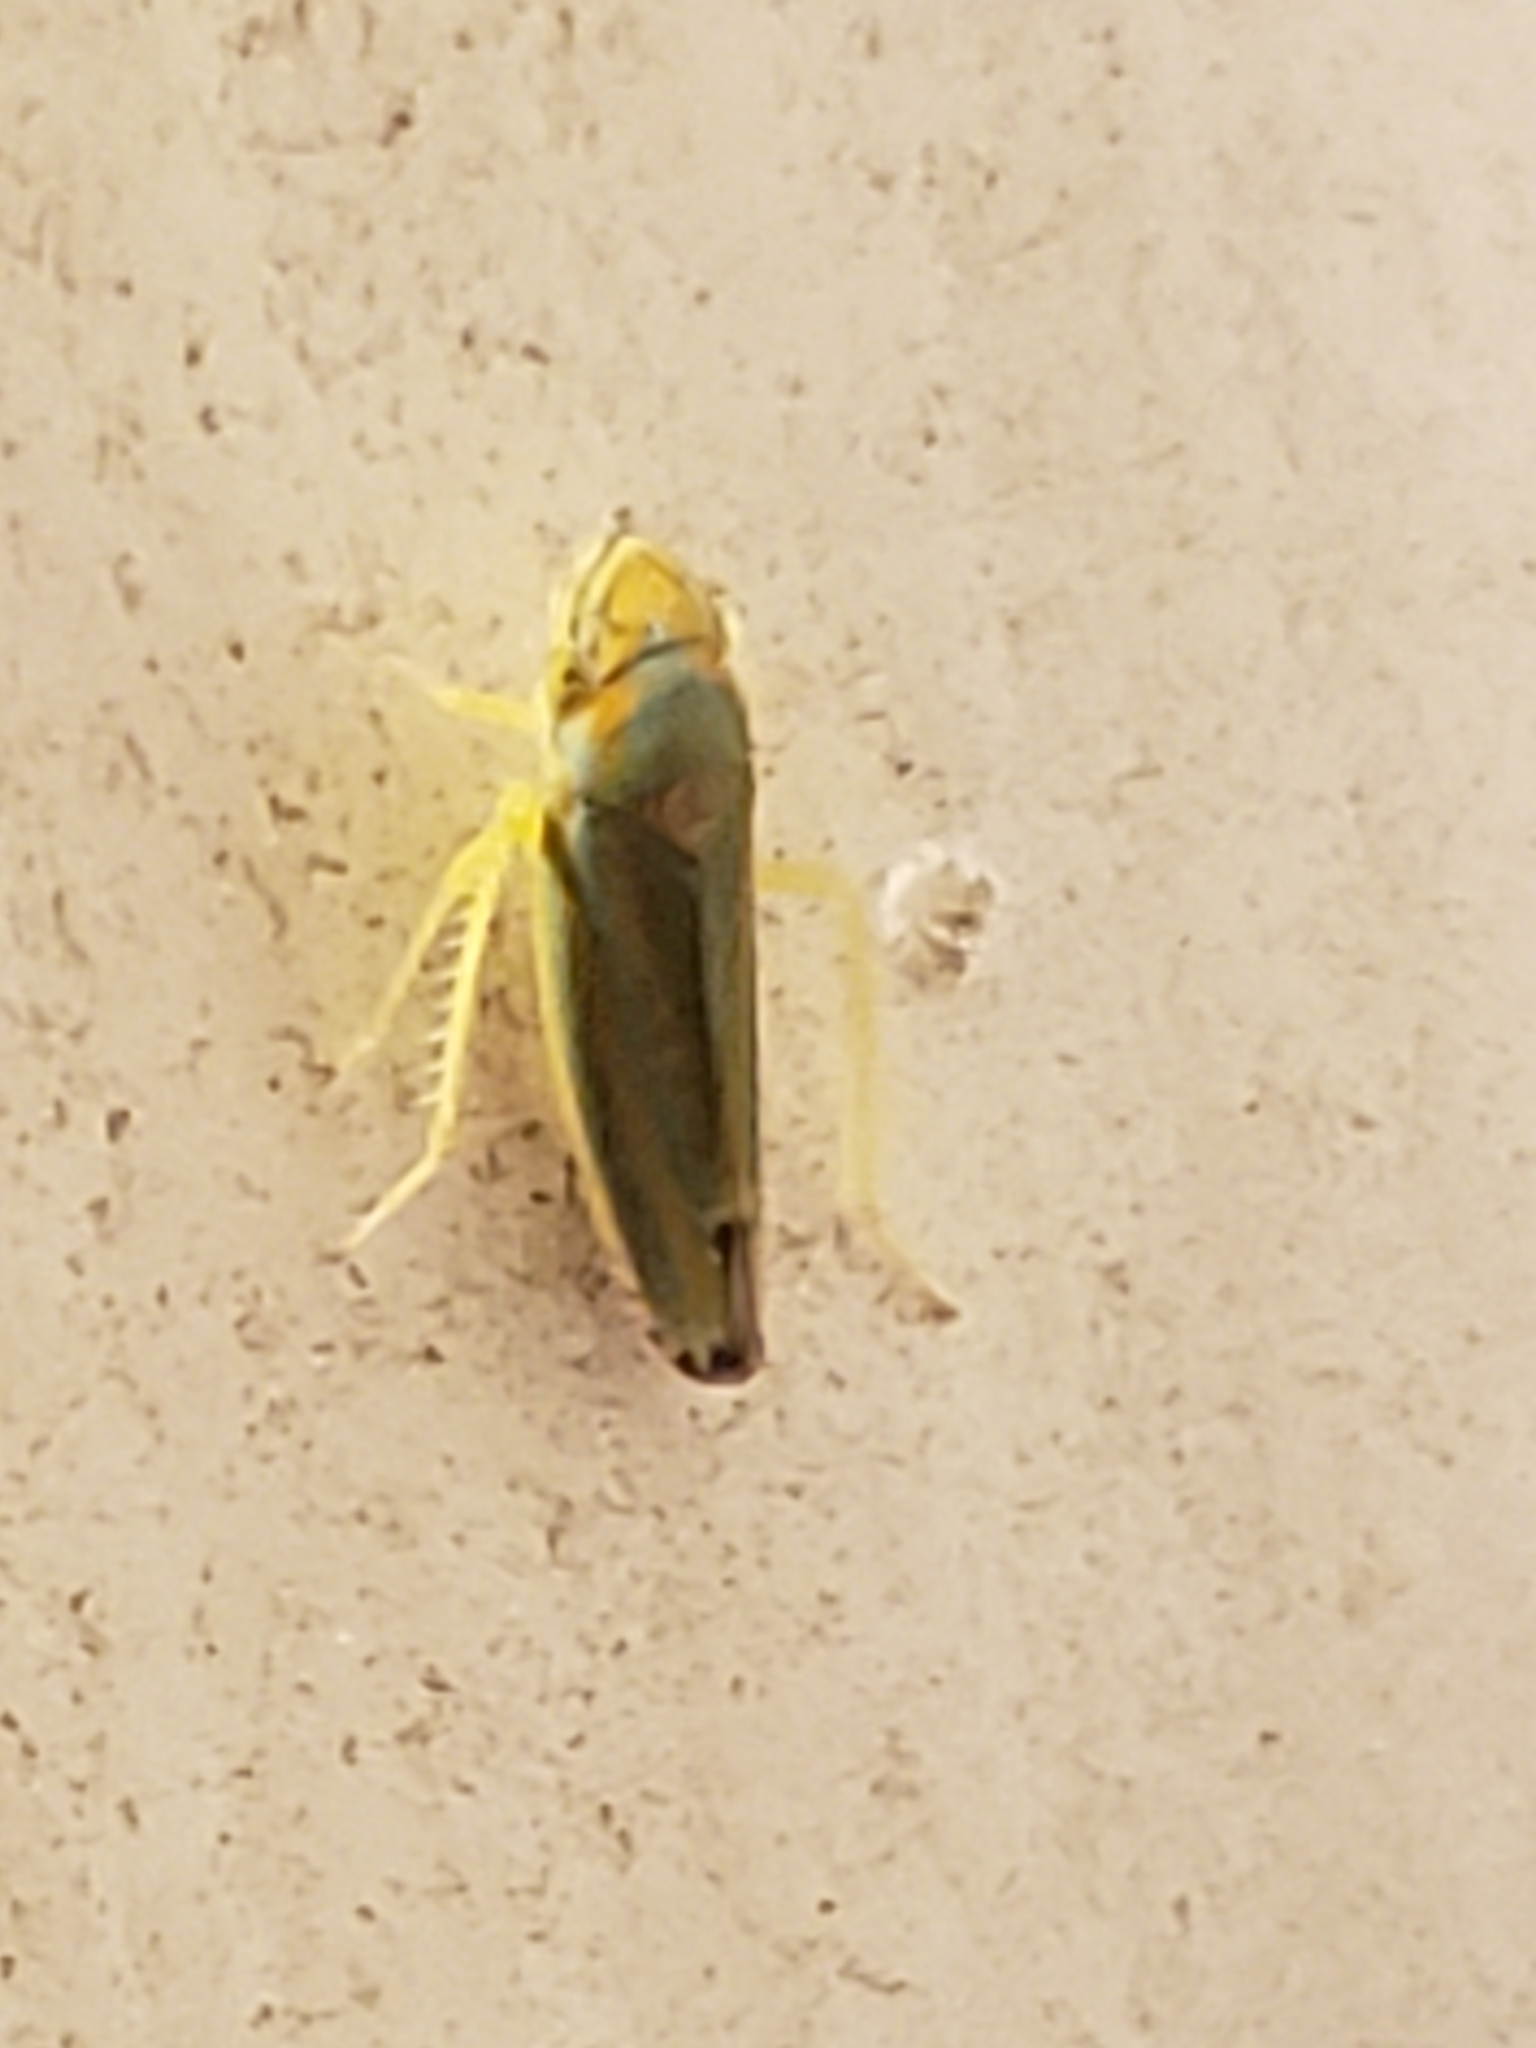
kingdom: Animalia
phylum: Arthropoda
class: Insecta
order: Hemiptera
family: Cicadellidae
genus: Graphocephala
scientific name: Graphocephala versuta
